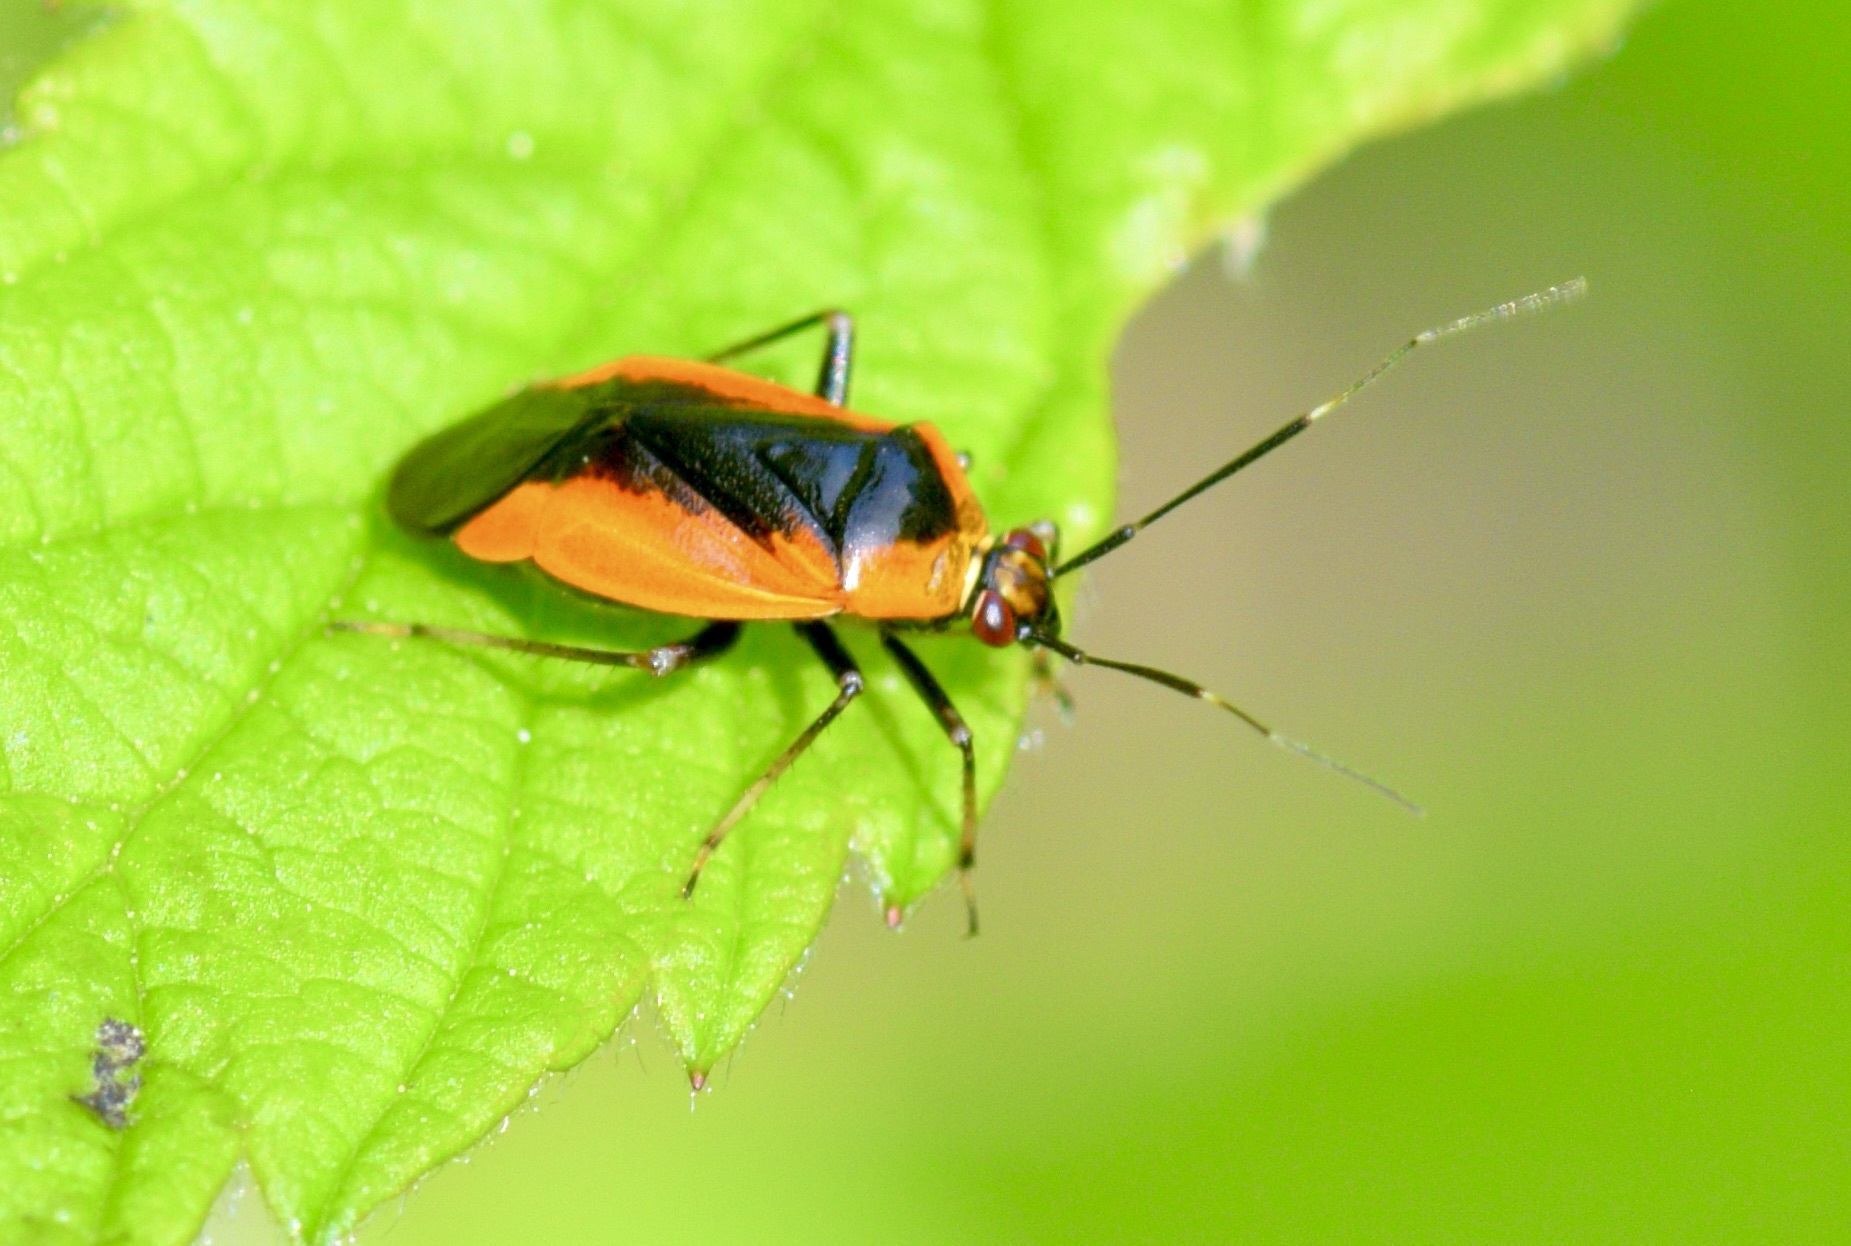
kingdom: Animalia
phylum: Arthropoda
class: Insecta
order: Hemiptera
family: Miridae
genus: Metriorrhynchomiris
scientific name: Metriorrhynchomiris dislocatus
